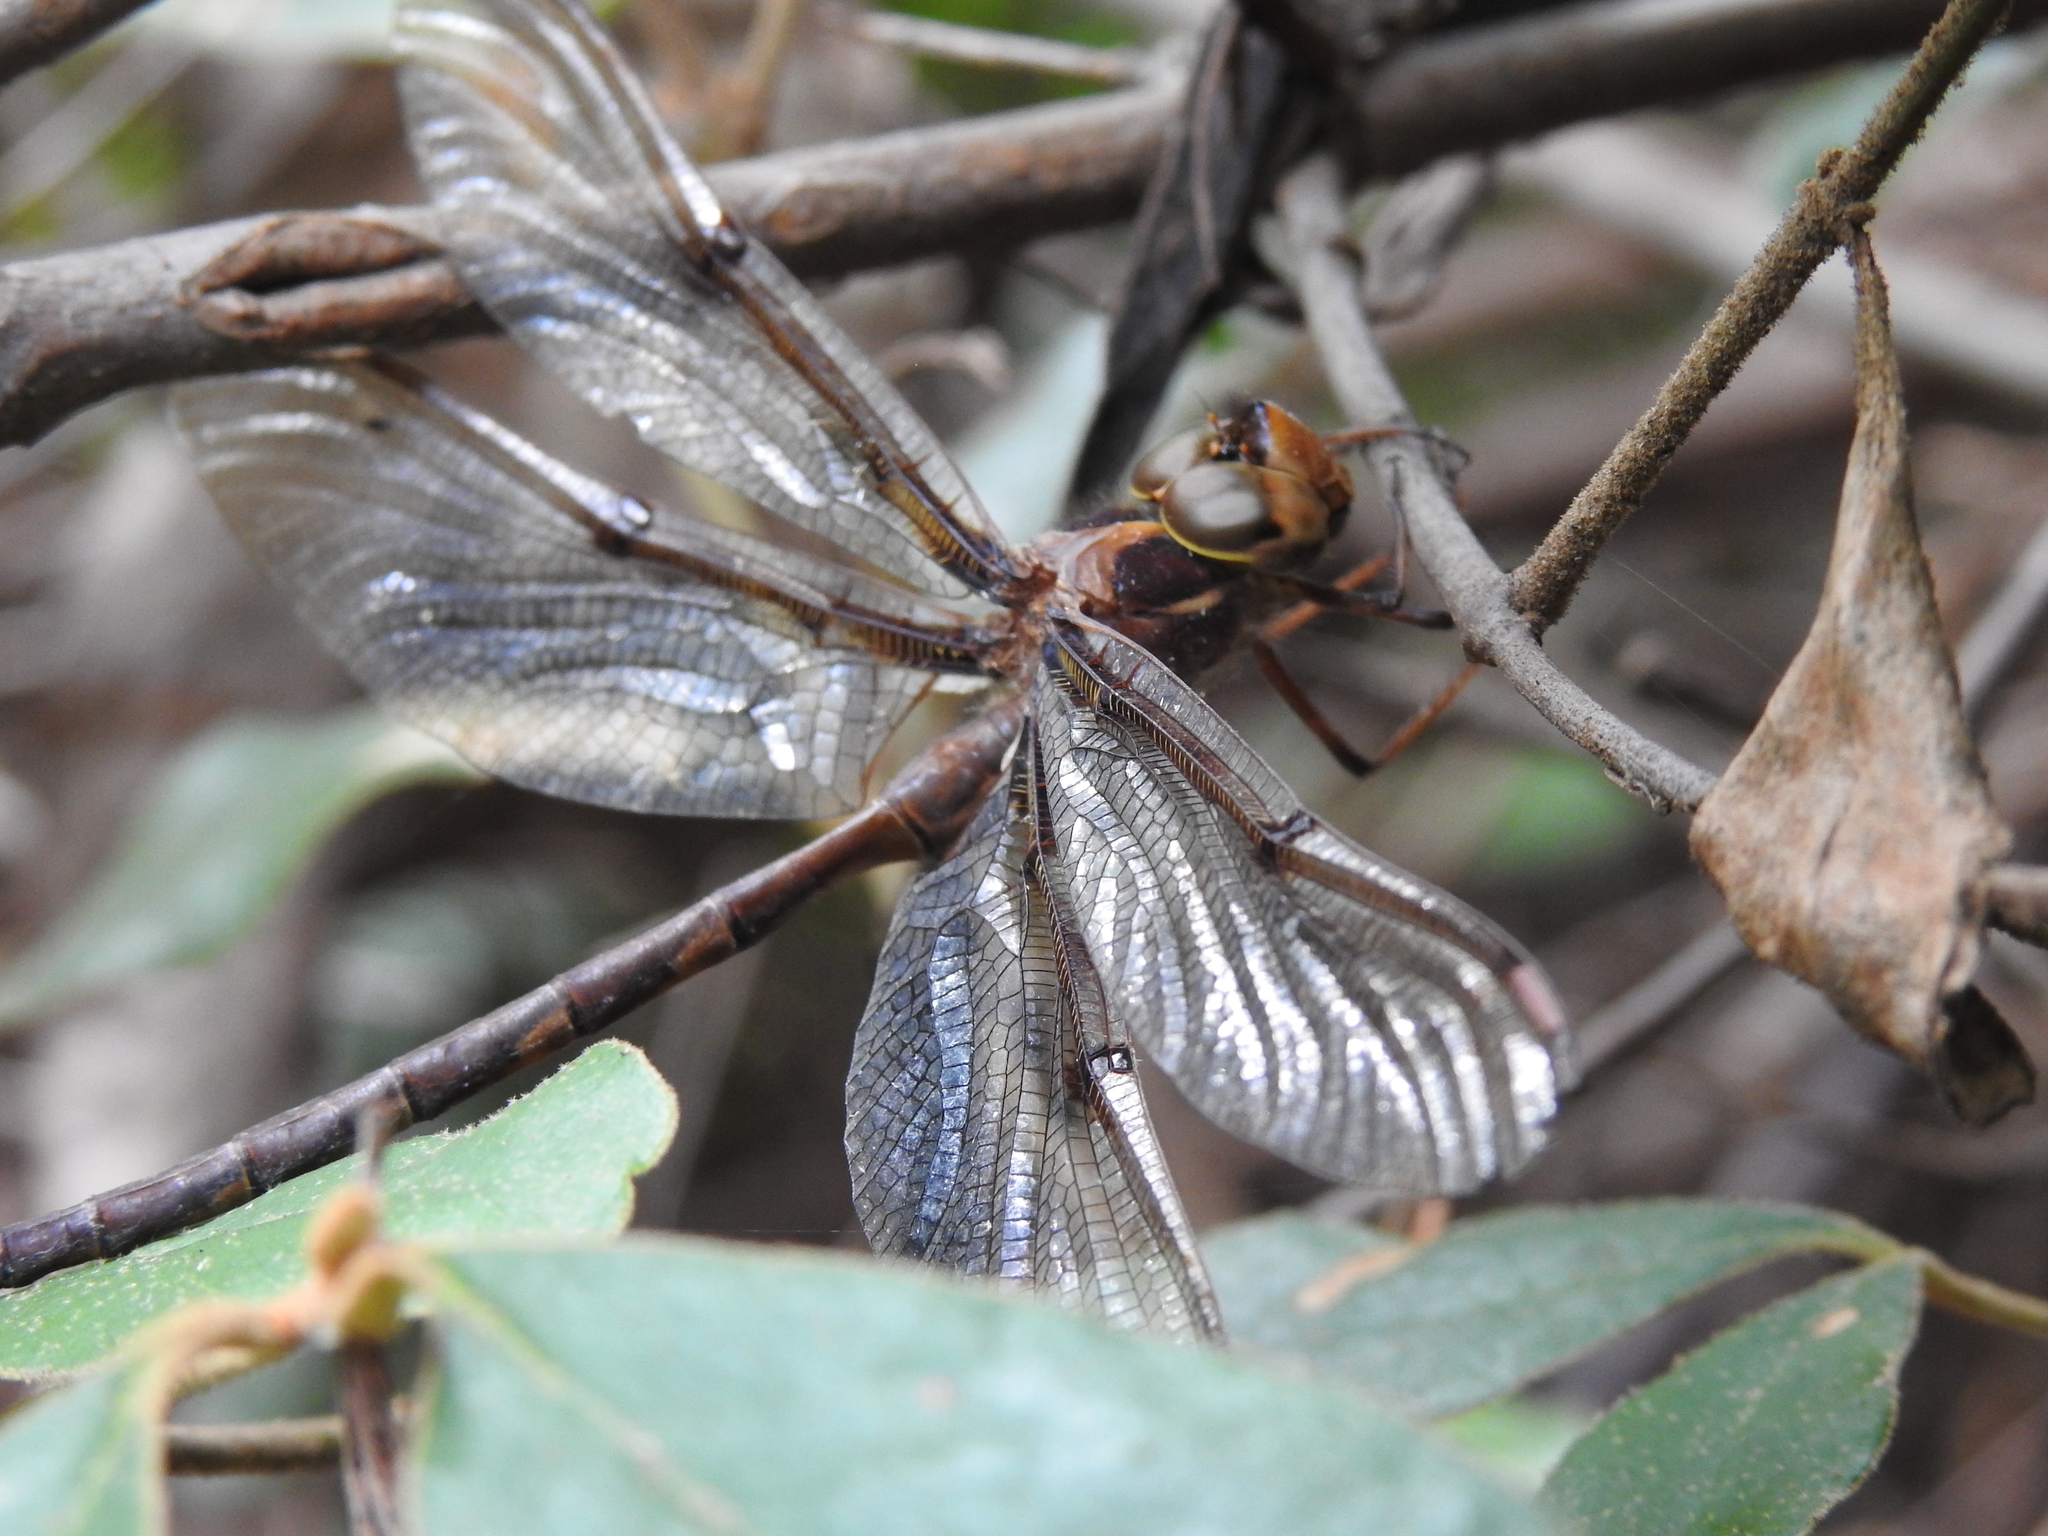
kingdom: Animalia
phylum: Arthropoda
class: Insecta
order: Odonata
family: Aeshnidae
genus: Telephlebia
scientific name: Telephlebia brevicauda
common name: Southern evening darner
